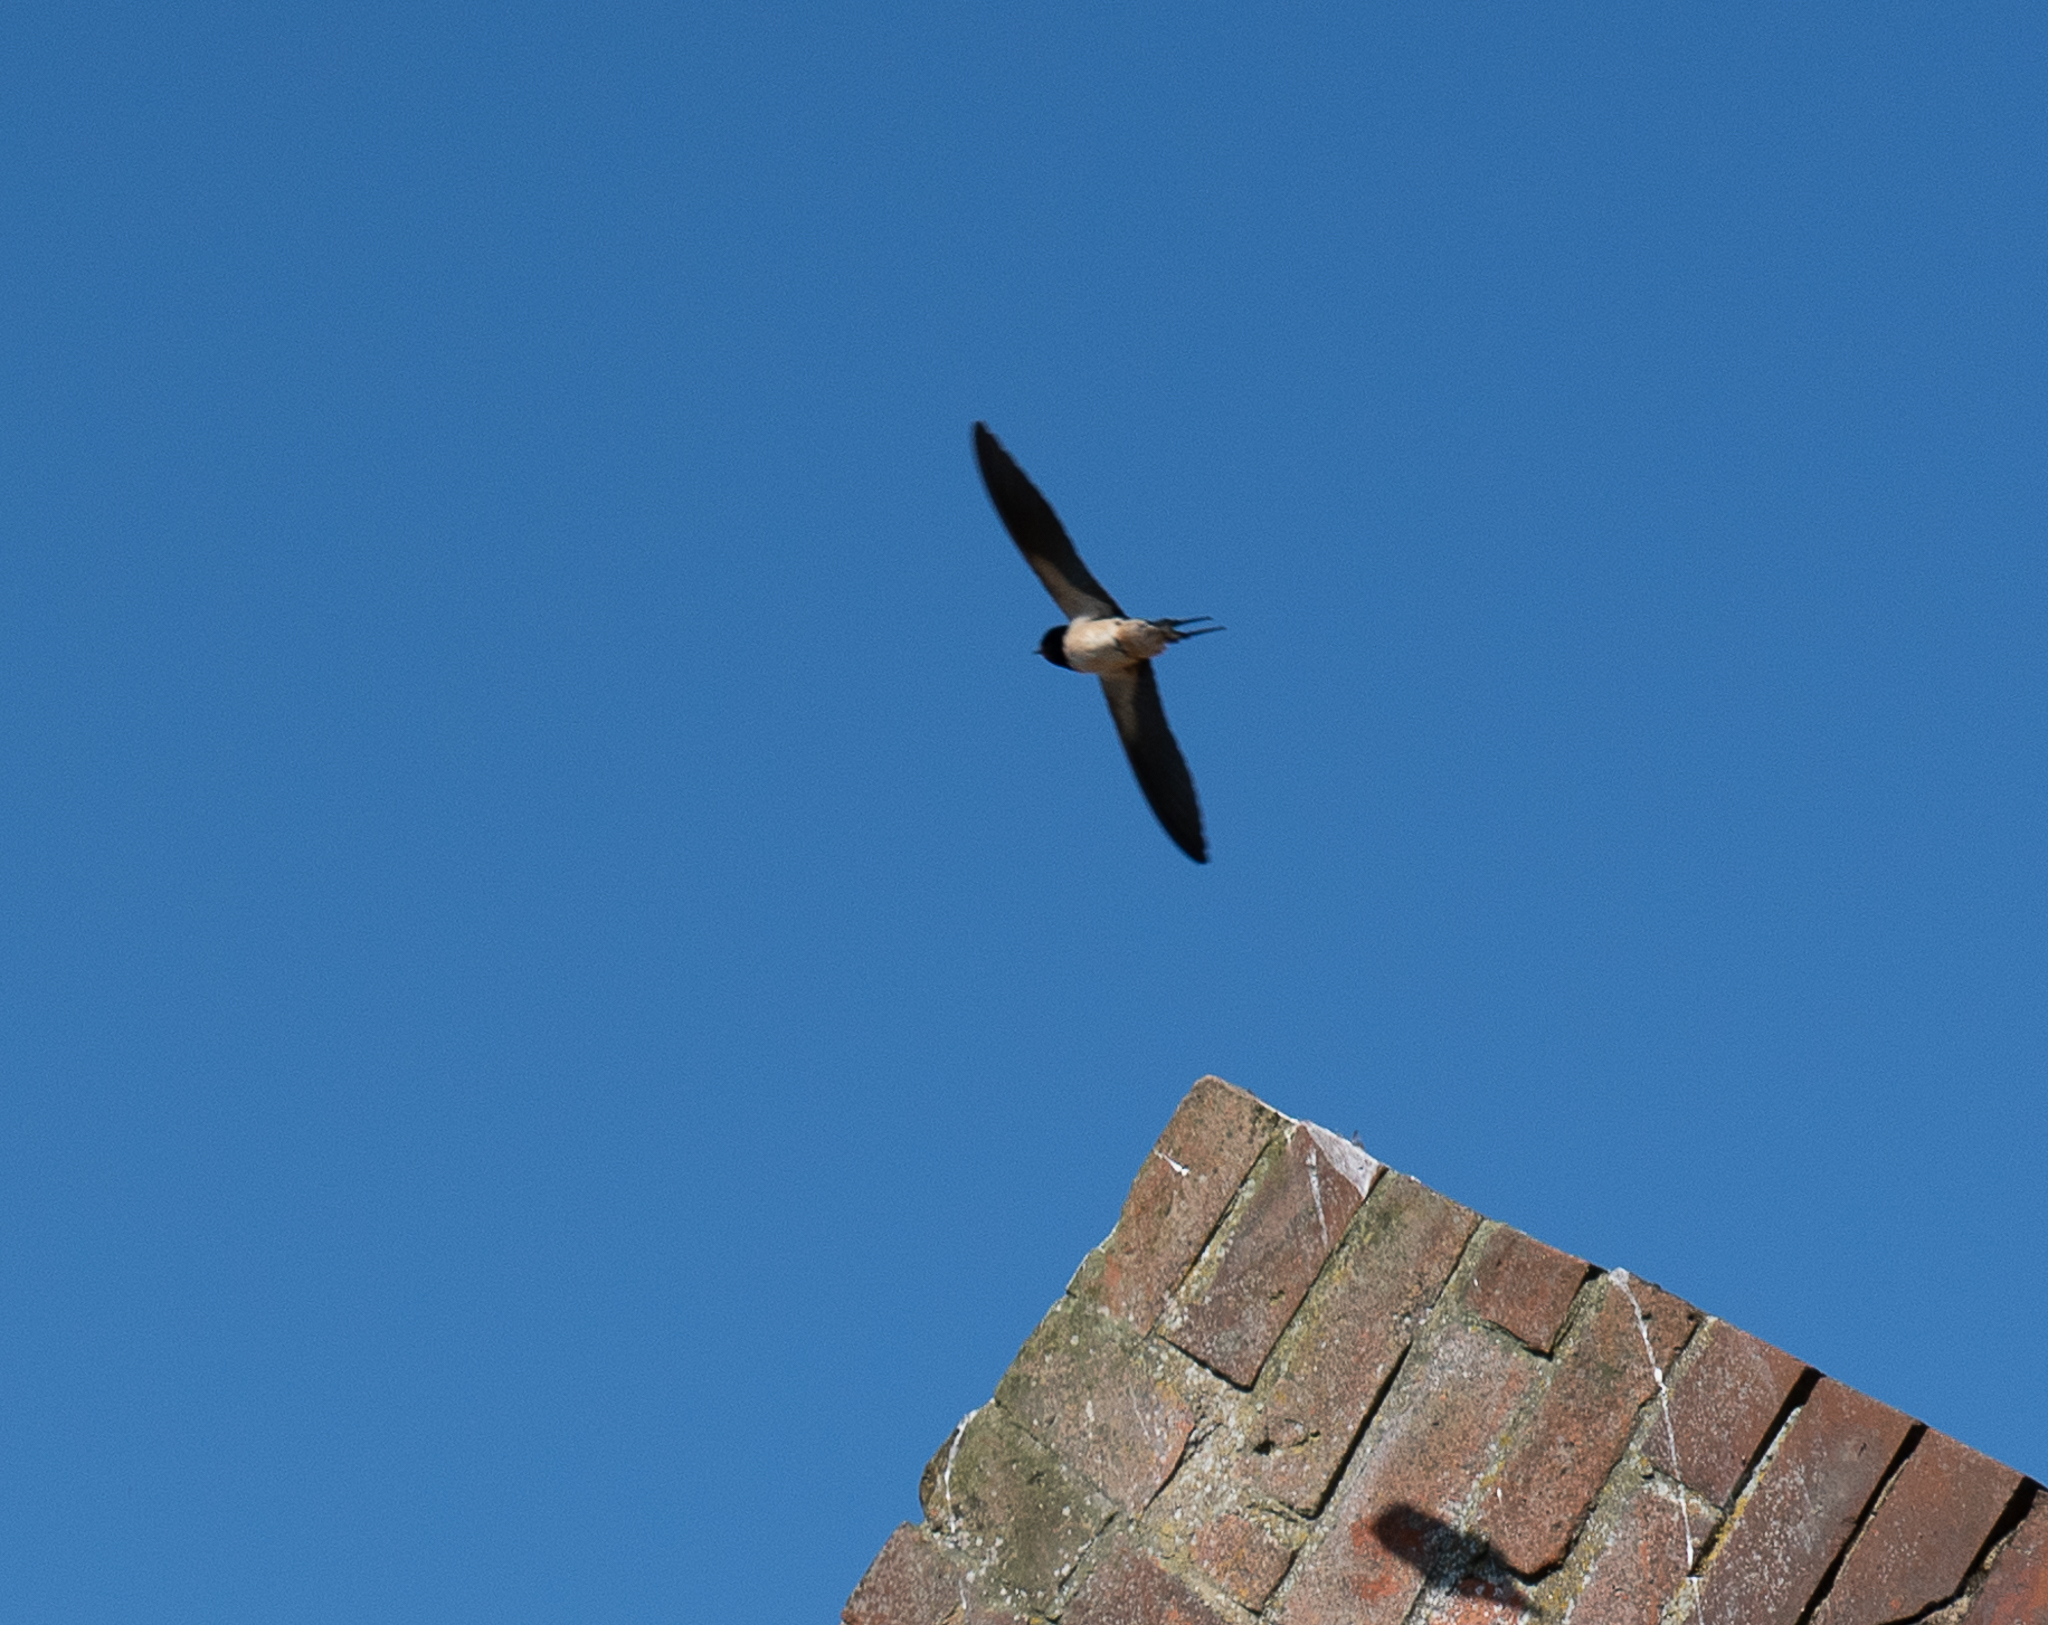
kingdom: Animalia
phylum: Chordata
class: Aves
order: Passeriformes
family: Hirundinidae
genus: Hirundo
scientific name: Hirundo rustica
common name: Barn swallow
